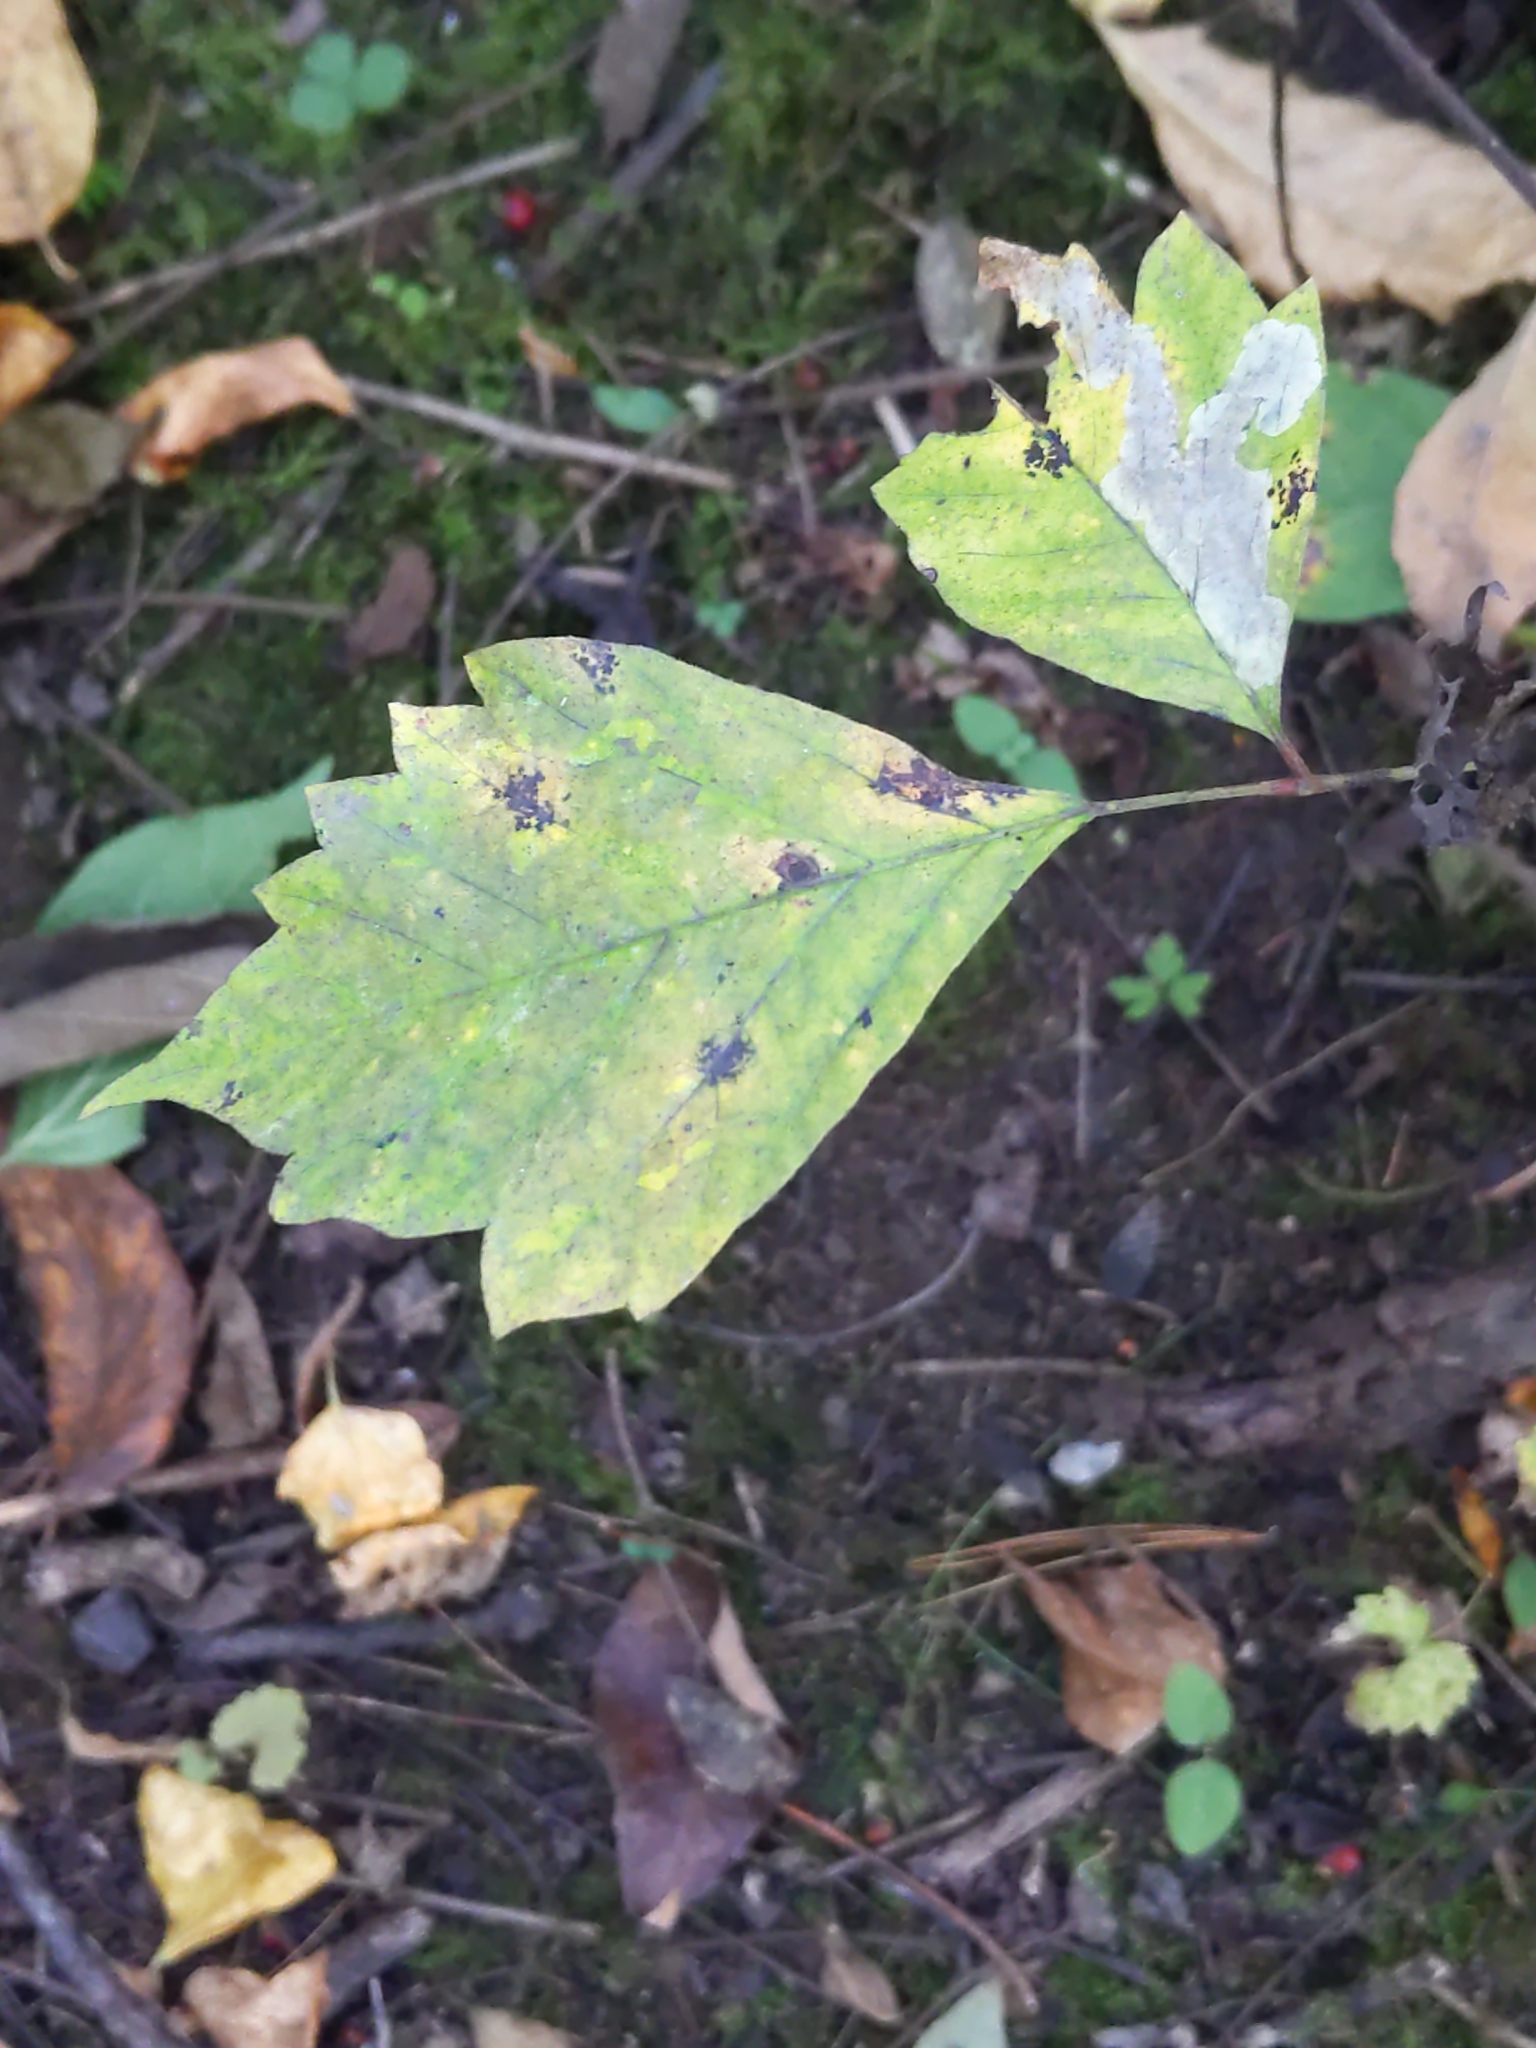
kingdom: Plantae
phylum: Tracheophyta
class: Magnoliopsida
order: Sapindales
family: Sapindaceae
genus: Acer
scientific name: Acer negundo
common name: Ashleaf maple
